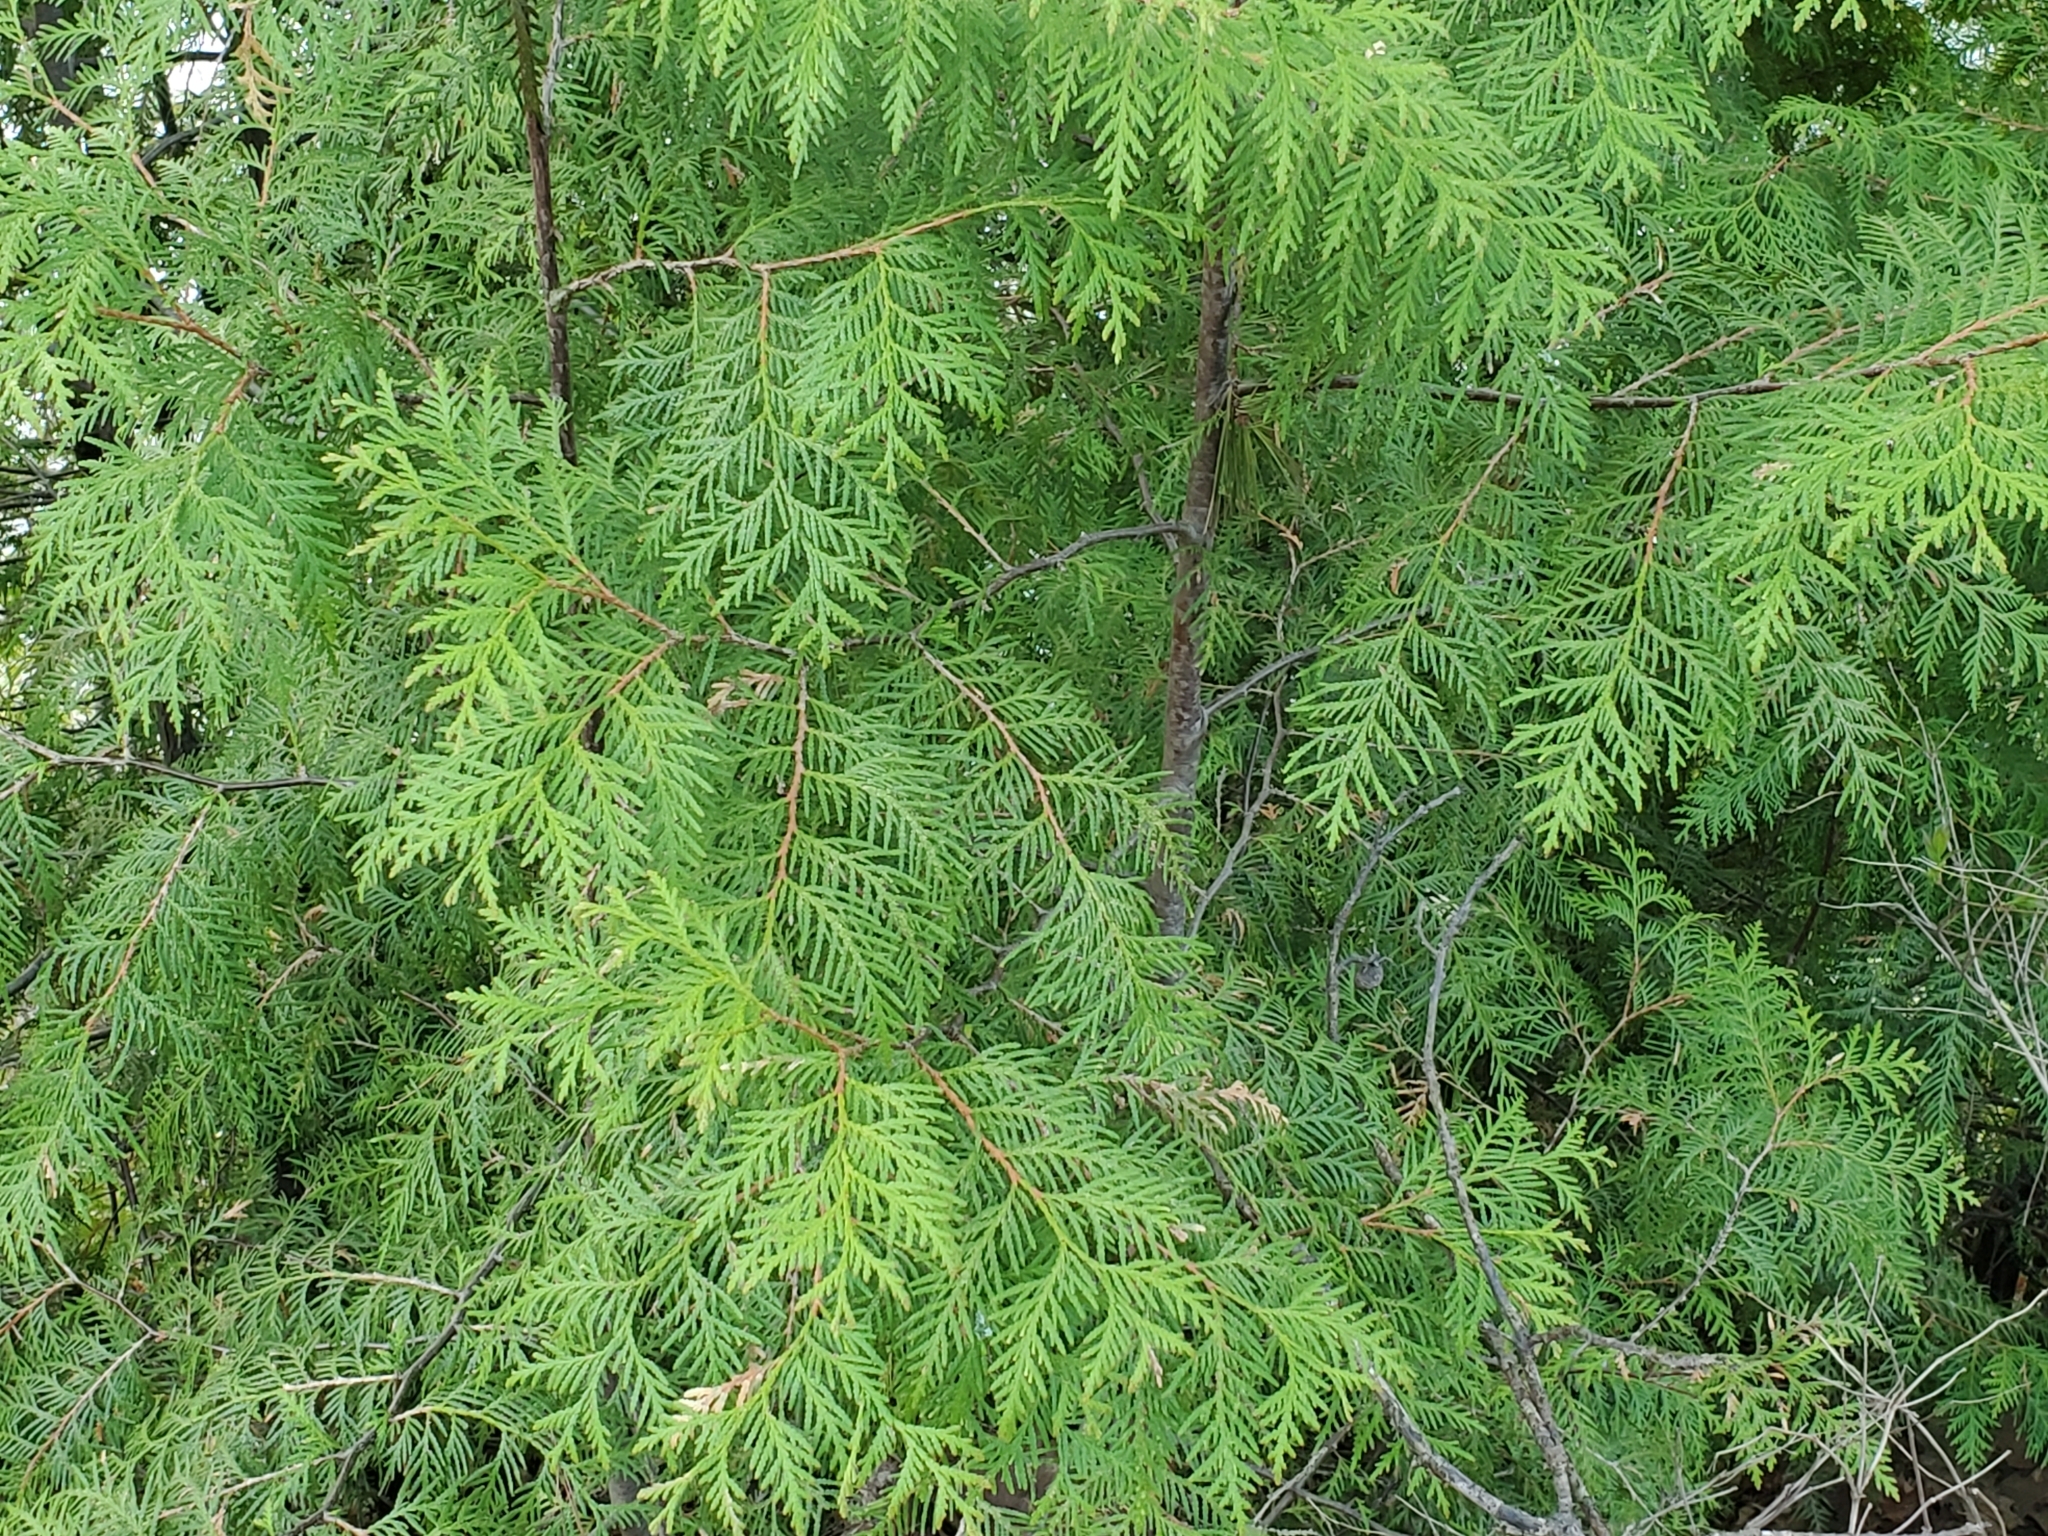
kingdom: Plantae
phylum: Tracheophyta
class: Pinopsida
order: Pinales
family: Cupressaceae
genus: Thuja
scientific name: Thuja occidentalis
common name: Northern white-cedar
